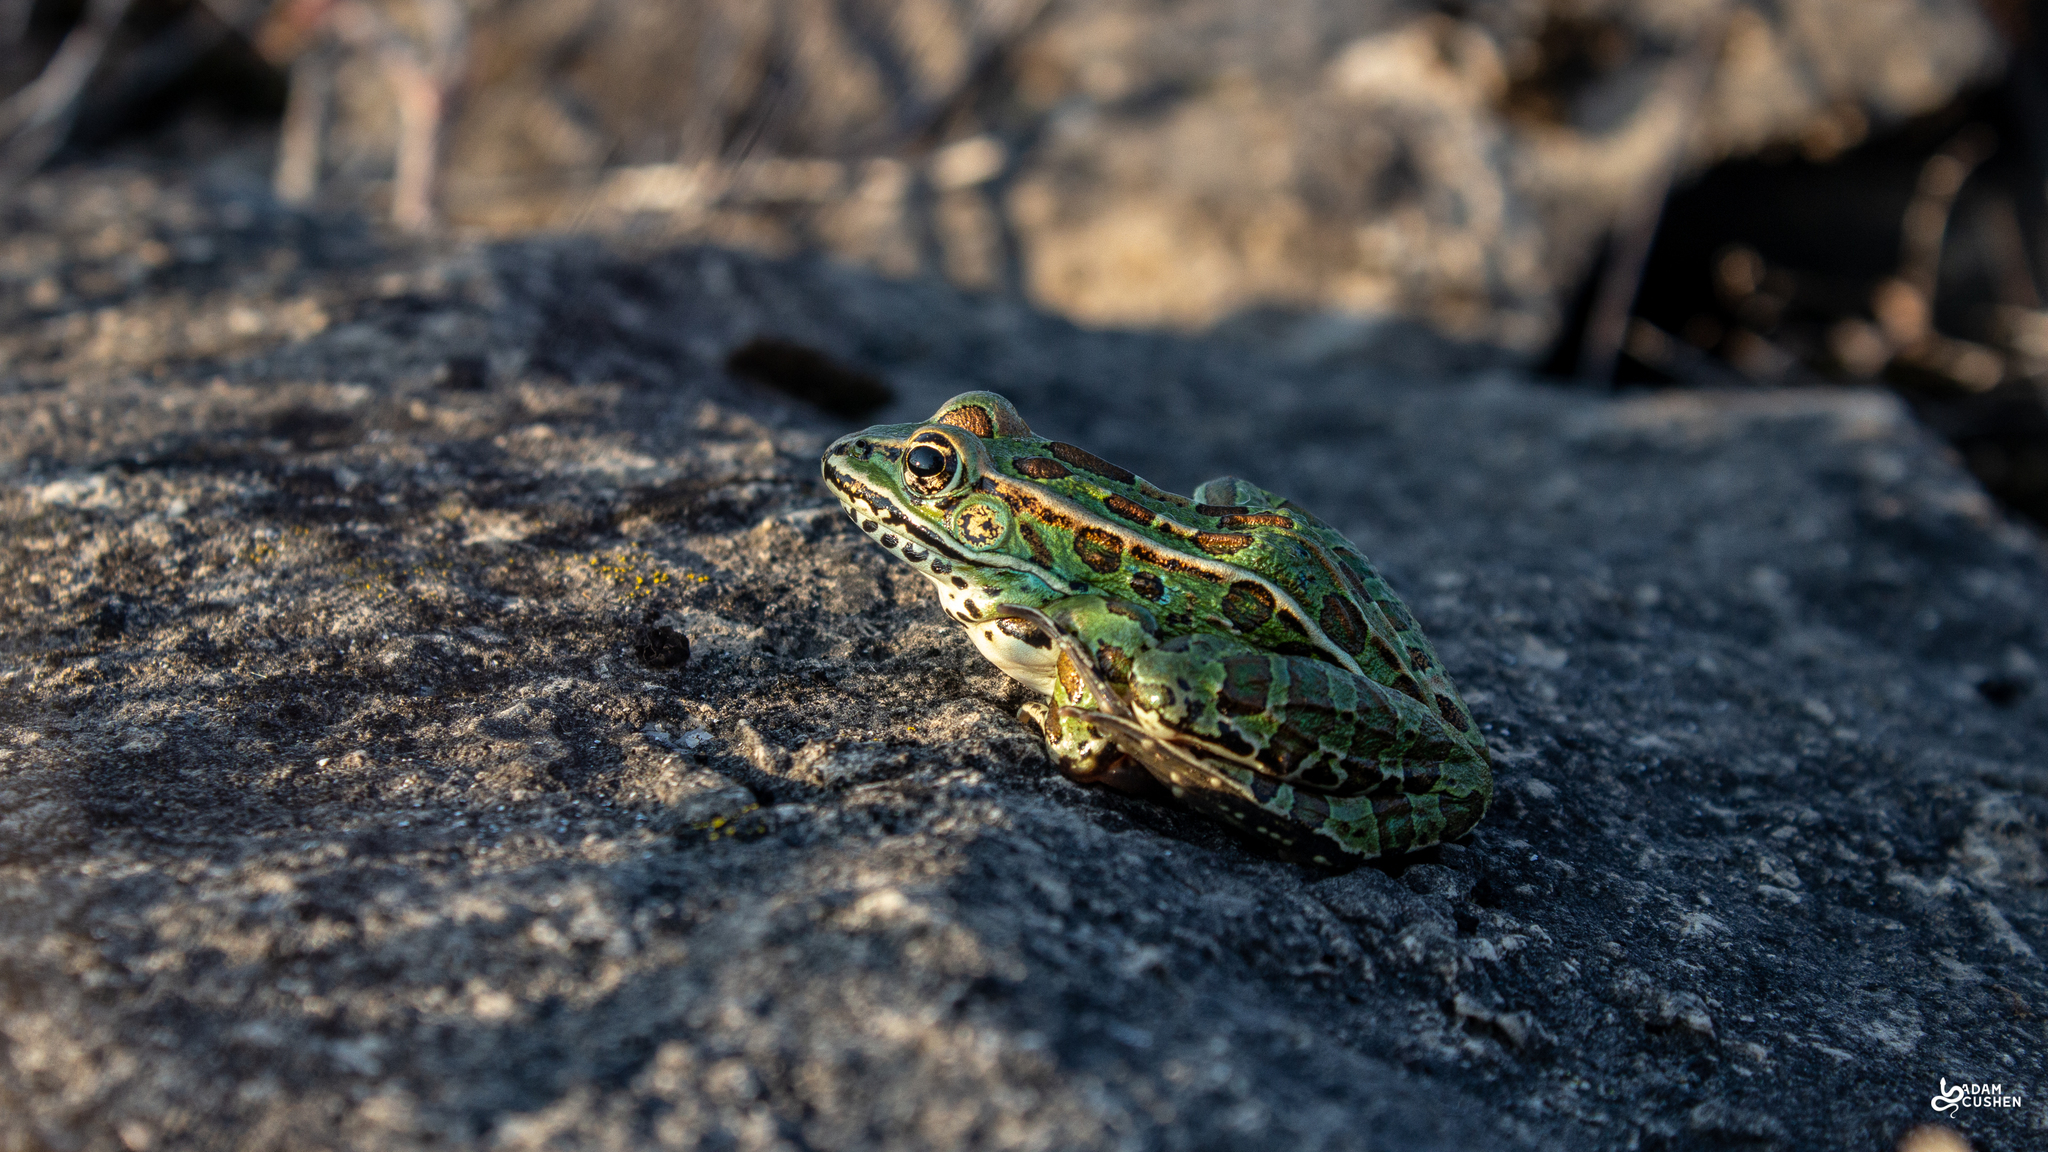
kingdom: Animalia
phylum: Chordata
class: Amphibia
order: Anura
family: Ranidae
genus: Lithobates
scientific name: Lithobates pipiens
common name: Northern leopard frog
